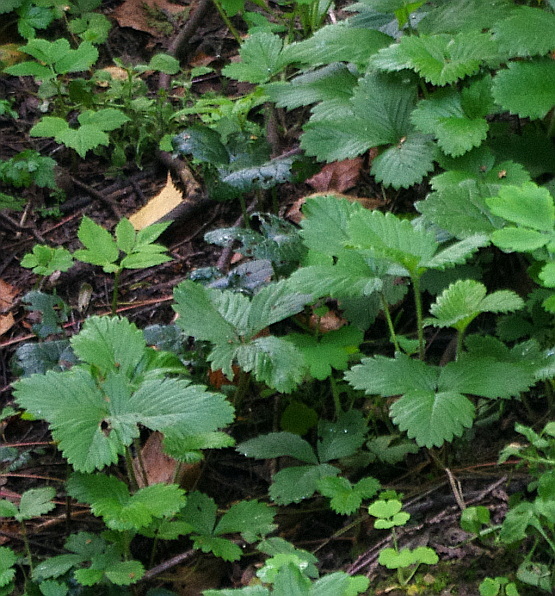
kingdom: Plantae
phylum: Tracheophyta
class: Magnoliopsida
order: Rosales
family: Rosaceae
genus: Fragaria
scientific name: Fragaria vesca
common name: Wild strawberry
